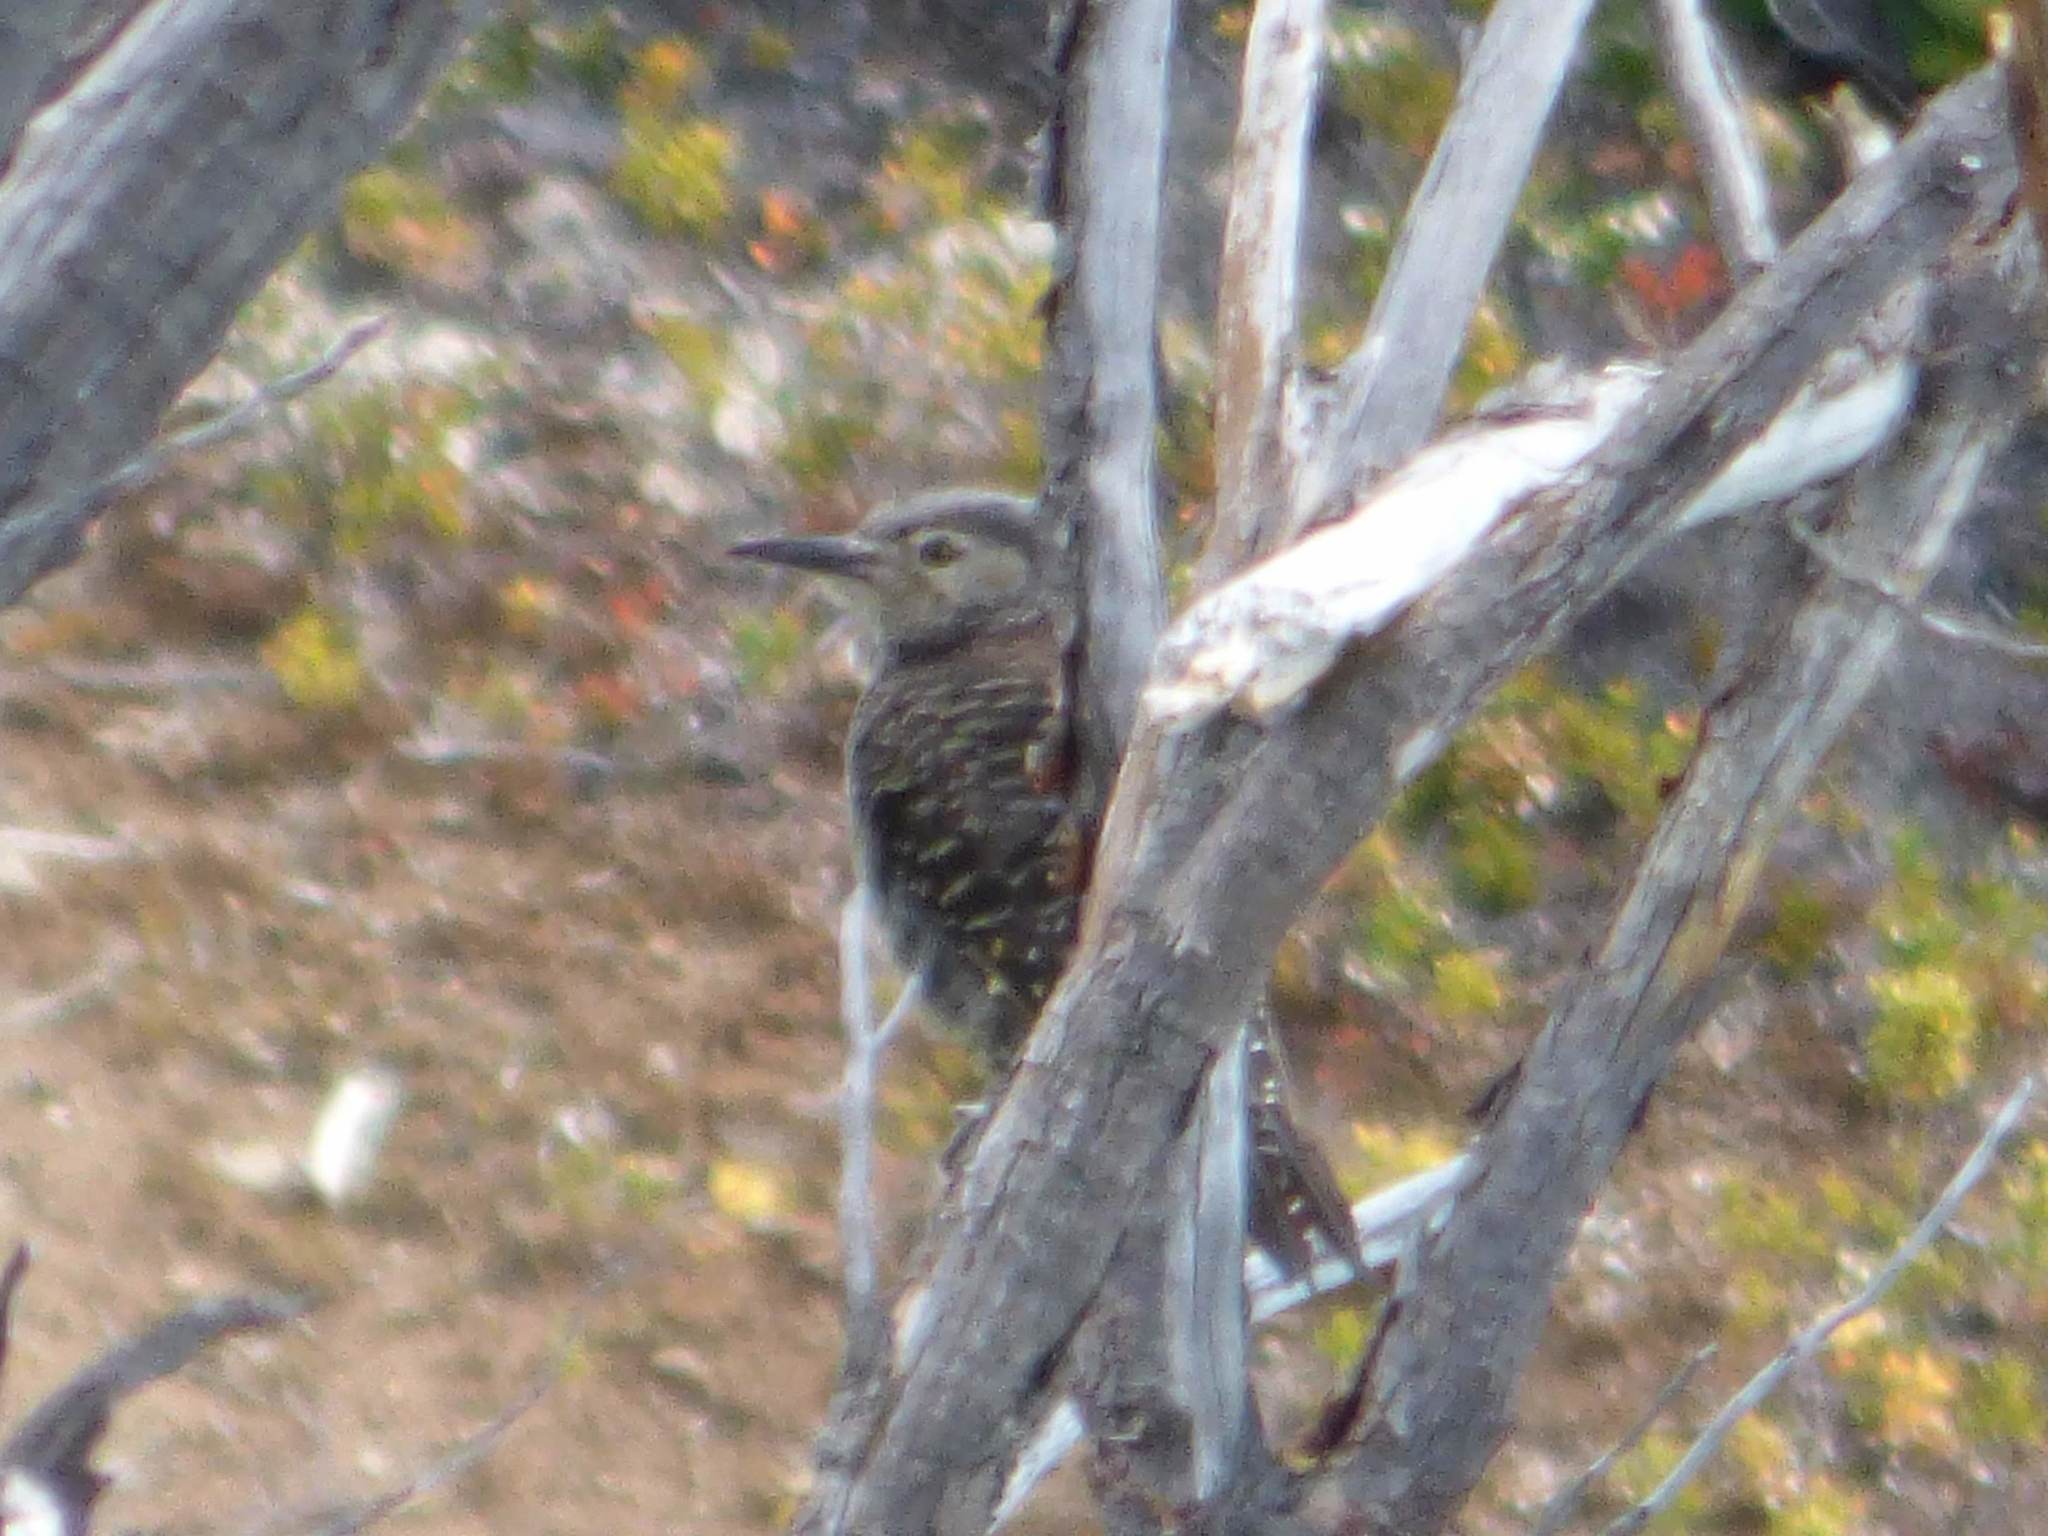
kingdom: Animalia
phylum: Chordata
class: Aves
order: Piciformes
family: Picidae
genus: Colaptes
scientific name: Colaptes pitius
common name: Chilean flicker
